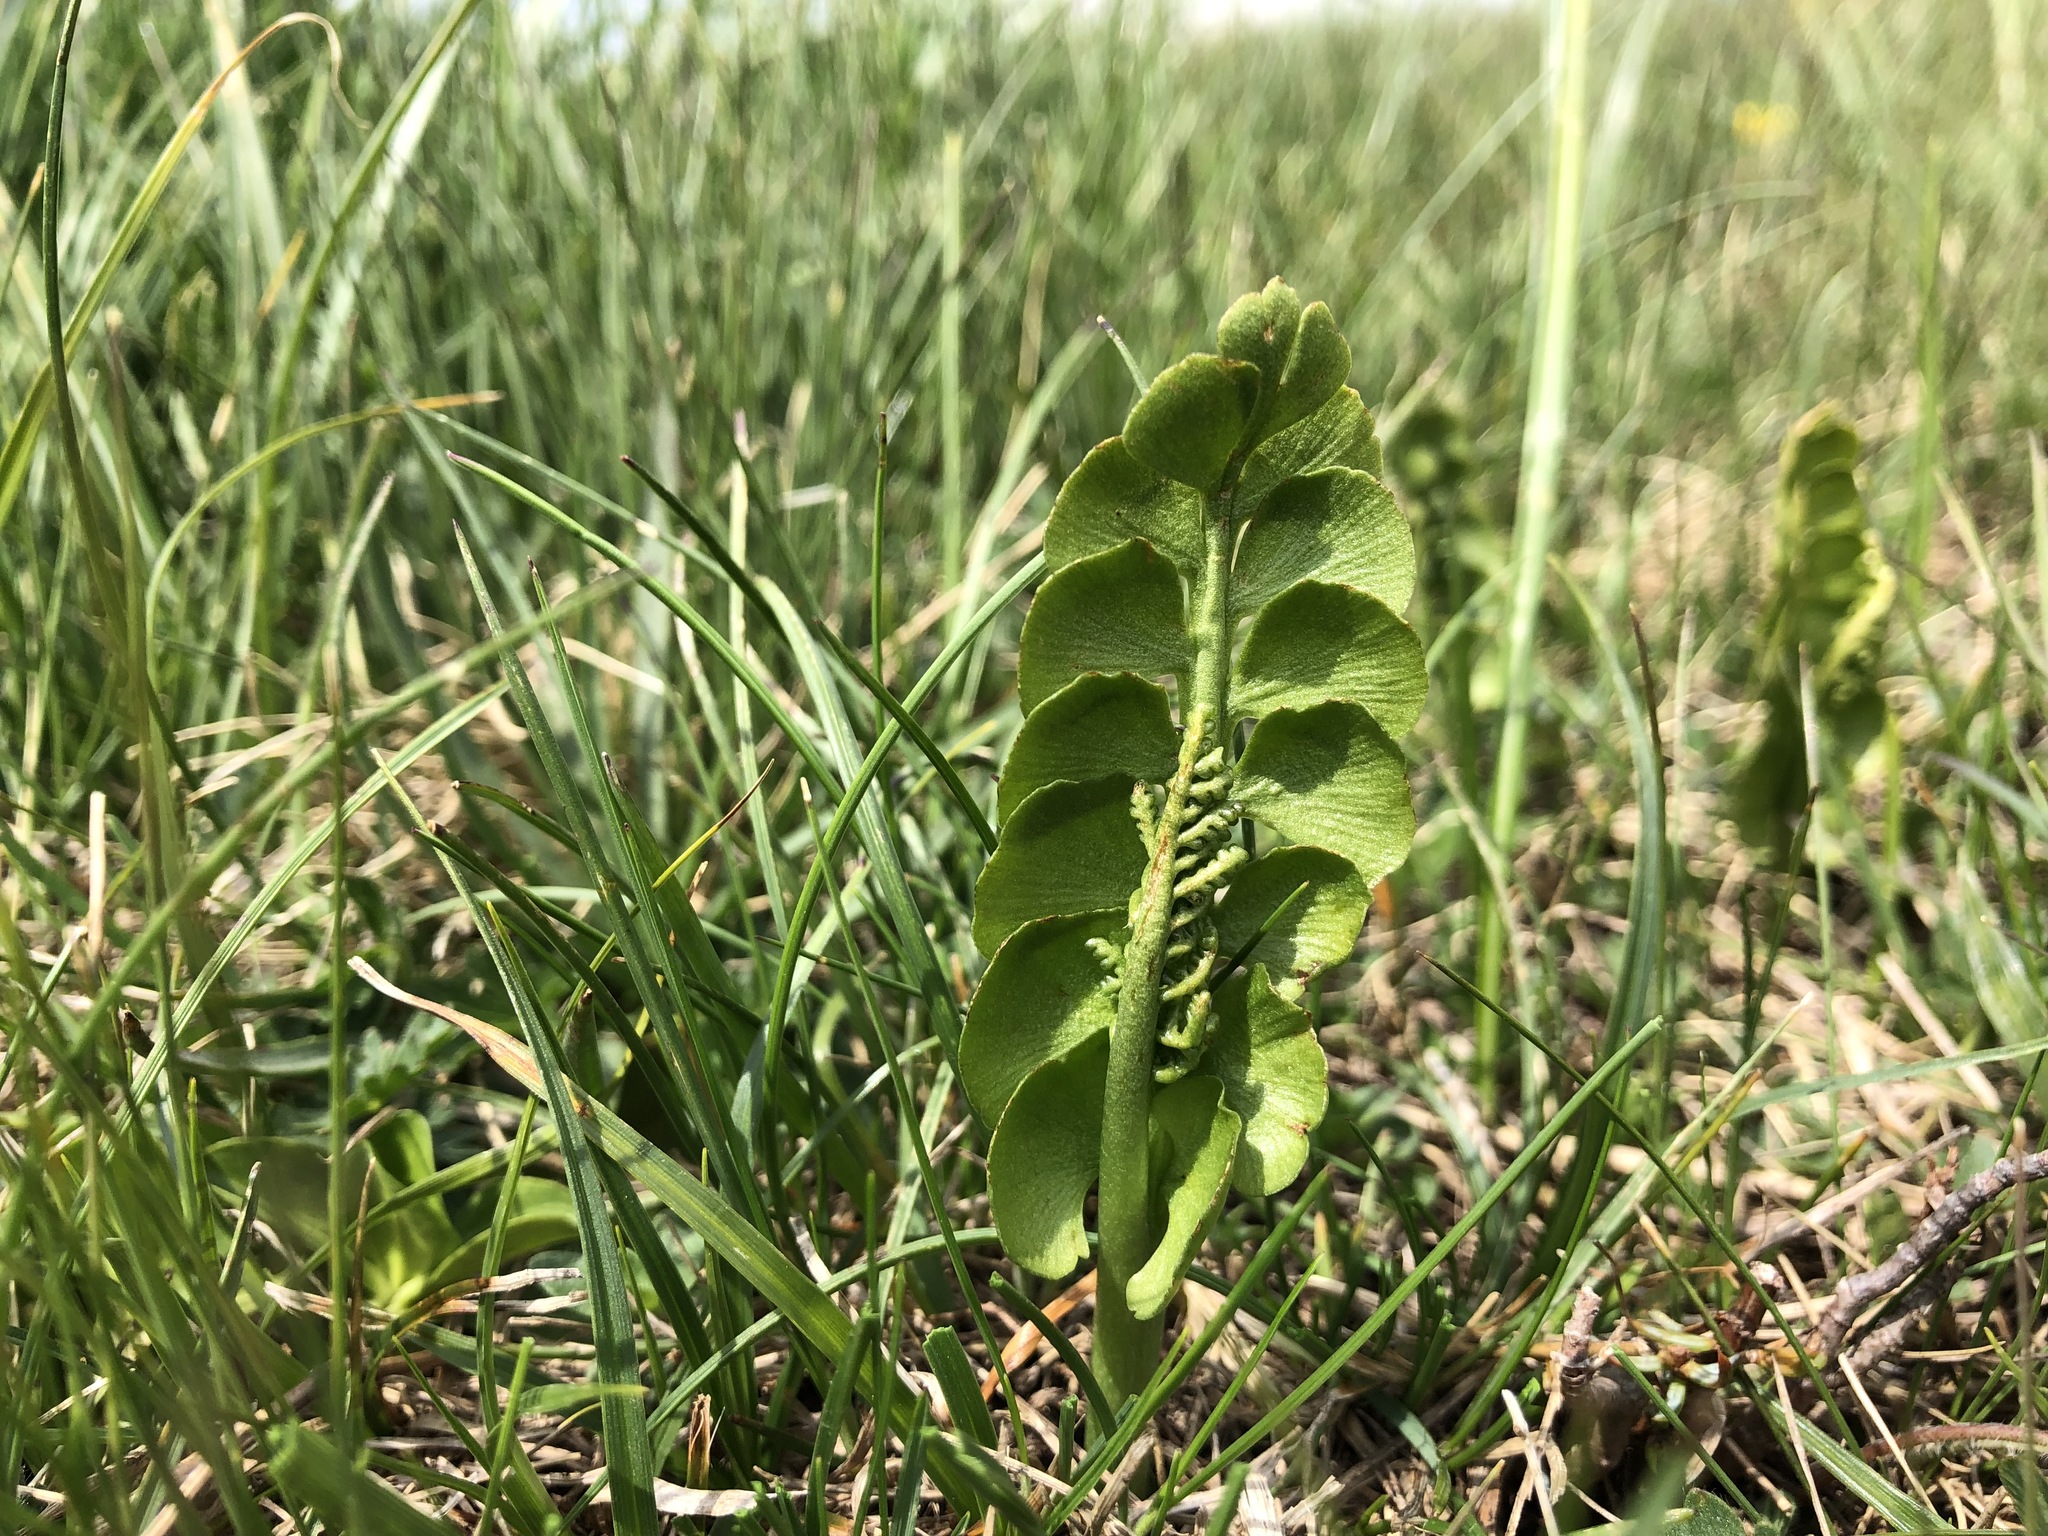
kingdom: Plantae
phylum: Tracheophyta
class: Polypodiopsida
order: Ophioglossales
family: Ophioglossaceae
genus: Botrychium
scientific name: Botrychium lunaria
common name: Moonwort
